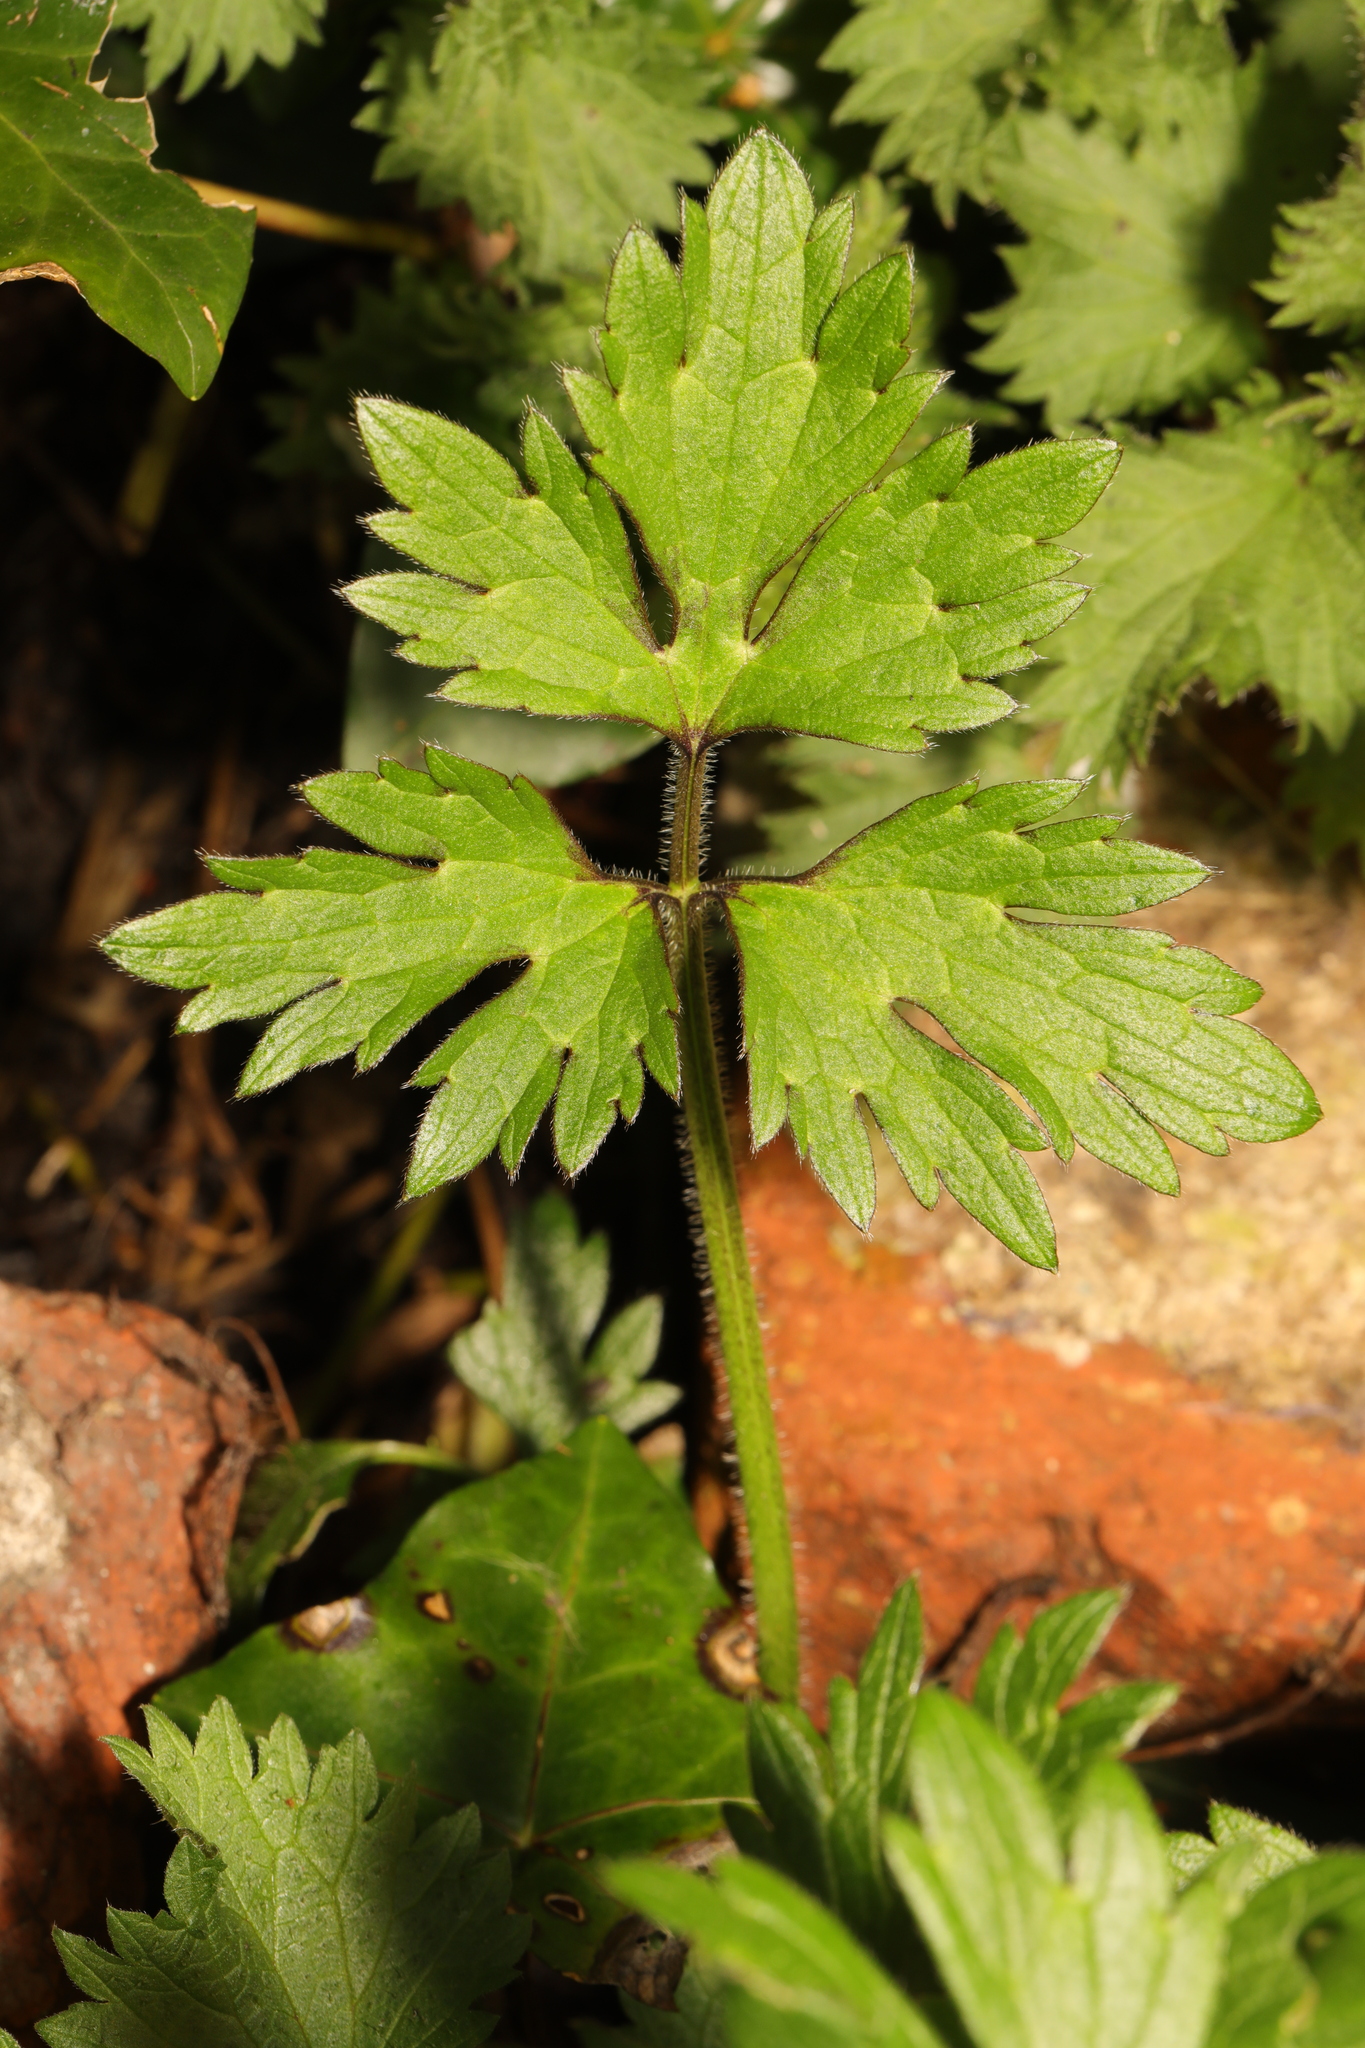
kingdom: Plantae
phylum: Tracheophyta
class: Magnoliopsida
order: Ranunculales
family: Ranunculaceae
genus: Ranunculus
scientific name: Ranunculus repens
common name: Creeping buttercup
